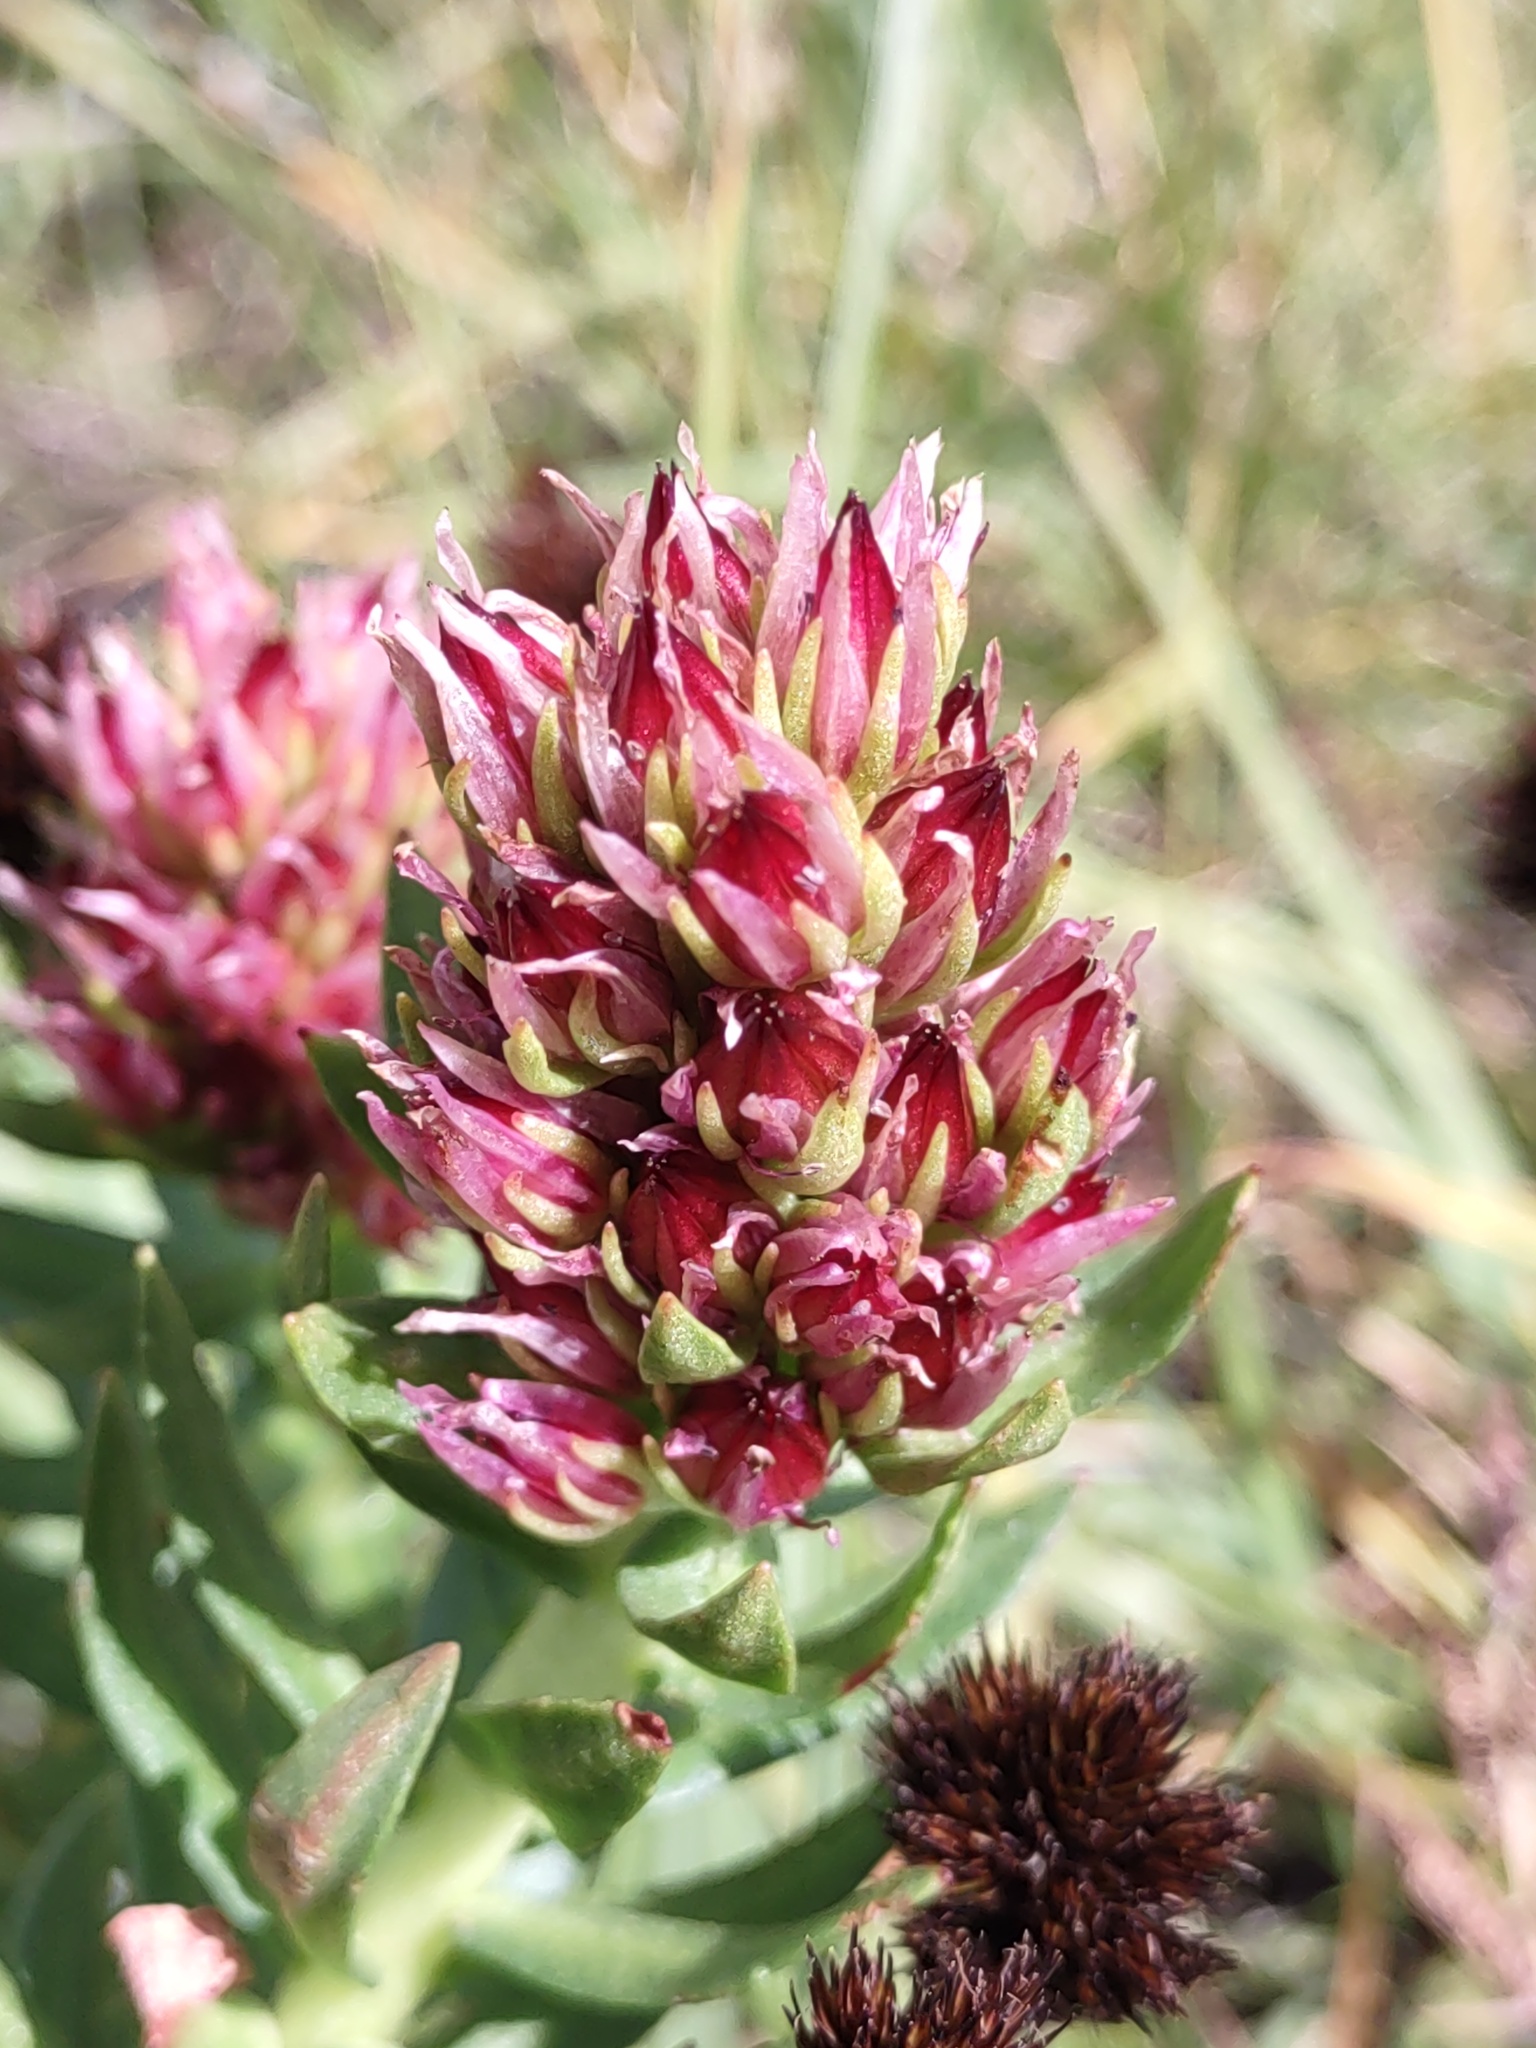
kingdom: Plantae
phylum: Tracheophyta
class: Magnoliopsida
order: Saxifragales
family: Crassulaceae
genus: Rhodiola
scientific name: Rhodiola rhodantha
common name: Red orpine
